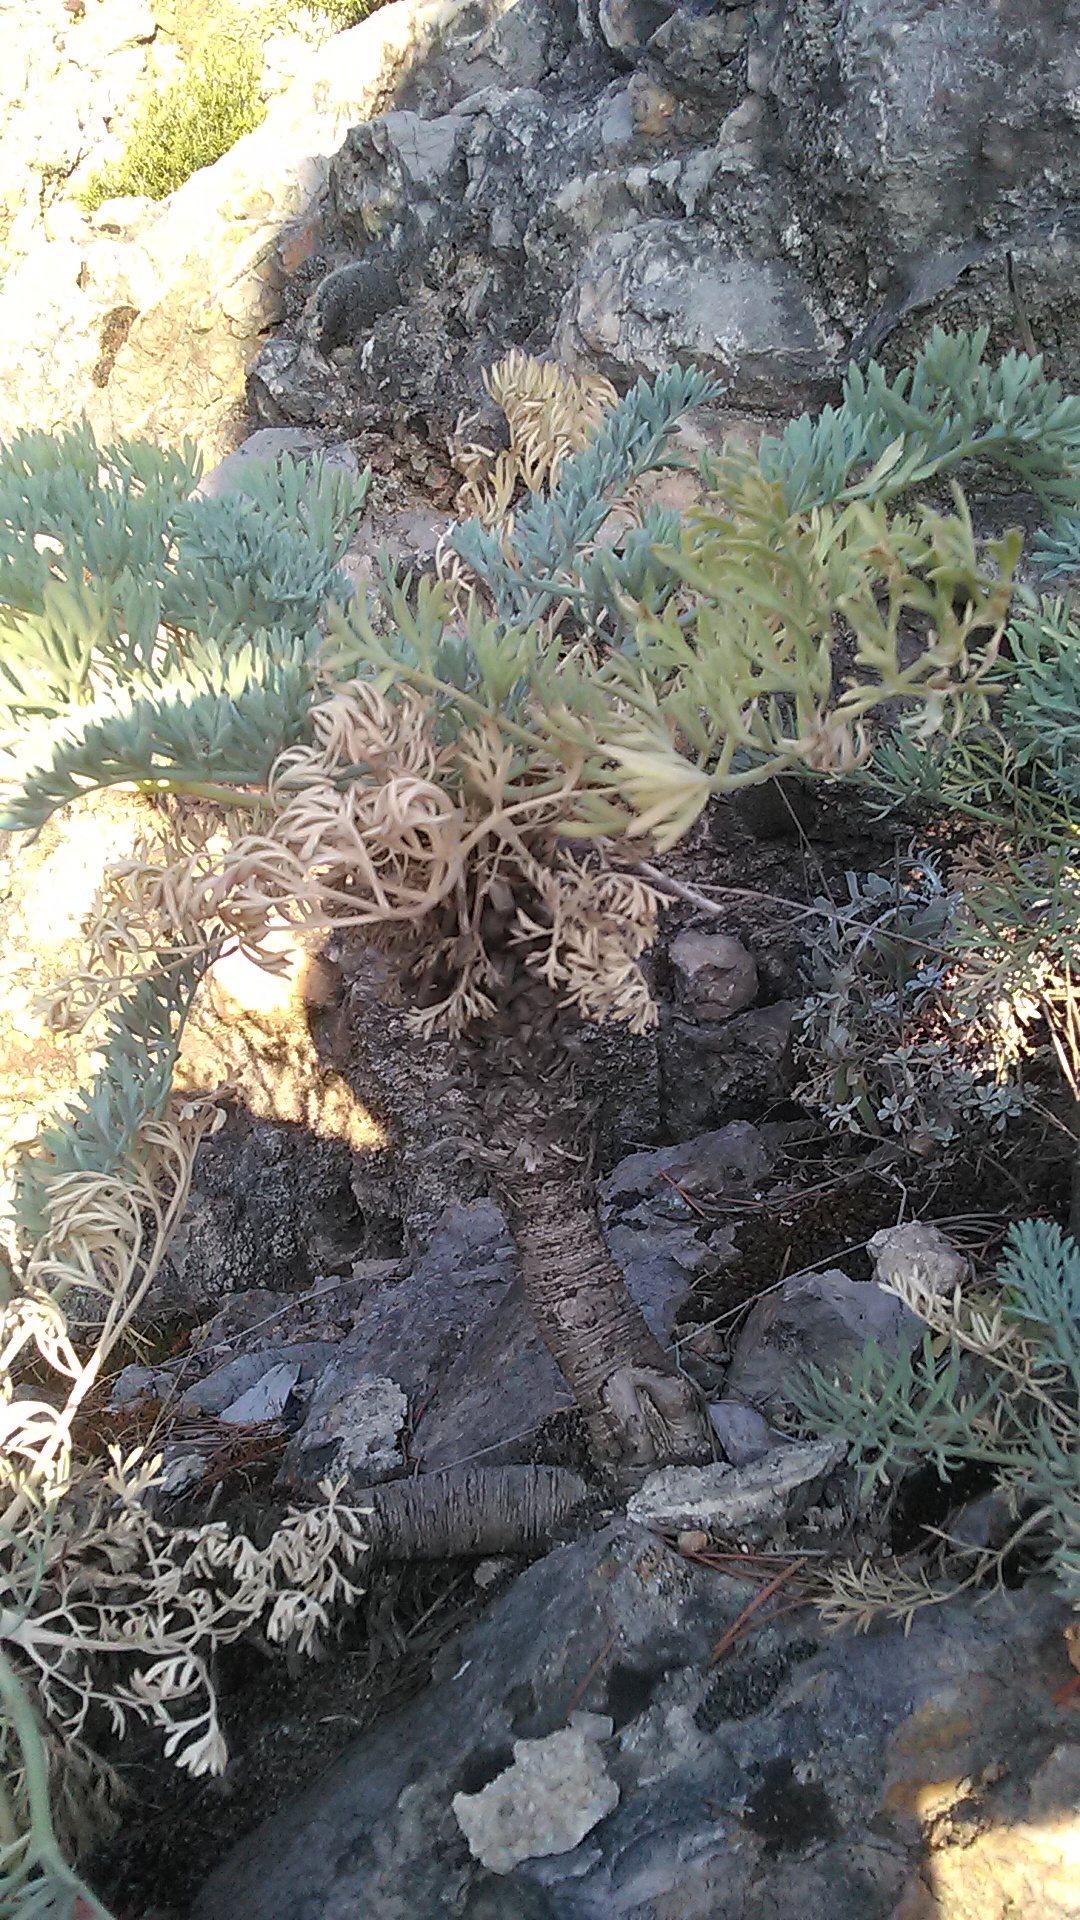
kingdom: Plantae
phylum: Tracheophyta
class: Magnoliopsida
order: Apiales
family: Apiaceae
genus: Seseli
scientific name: Seseli gummiferum
